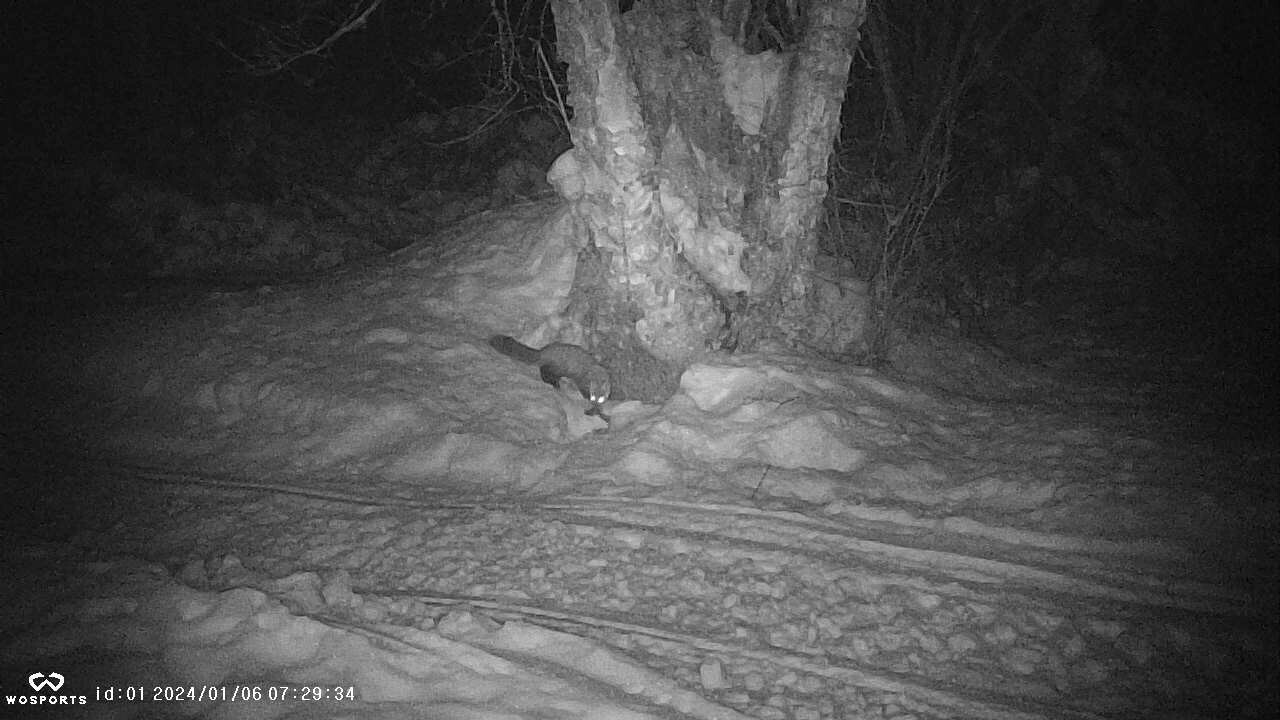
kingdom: Animalia
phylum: Chordata
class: Mammalia
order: Carnivora
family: Mustelidae
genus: Martes
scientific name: Martes americana
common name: American marten
